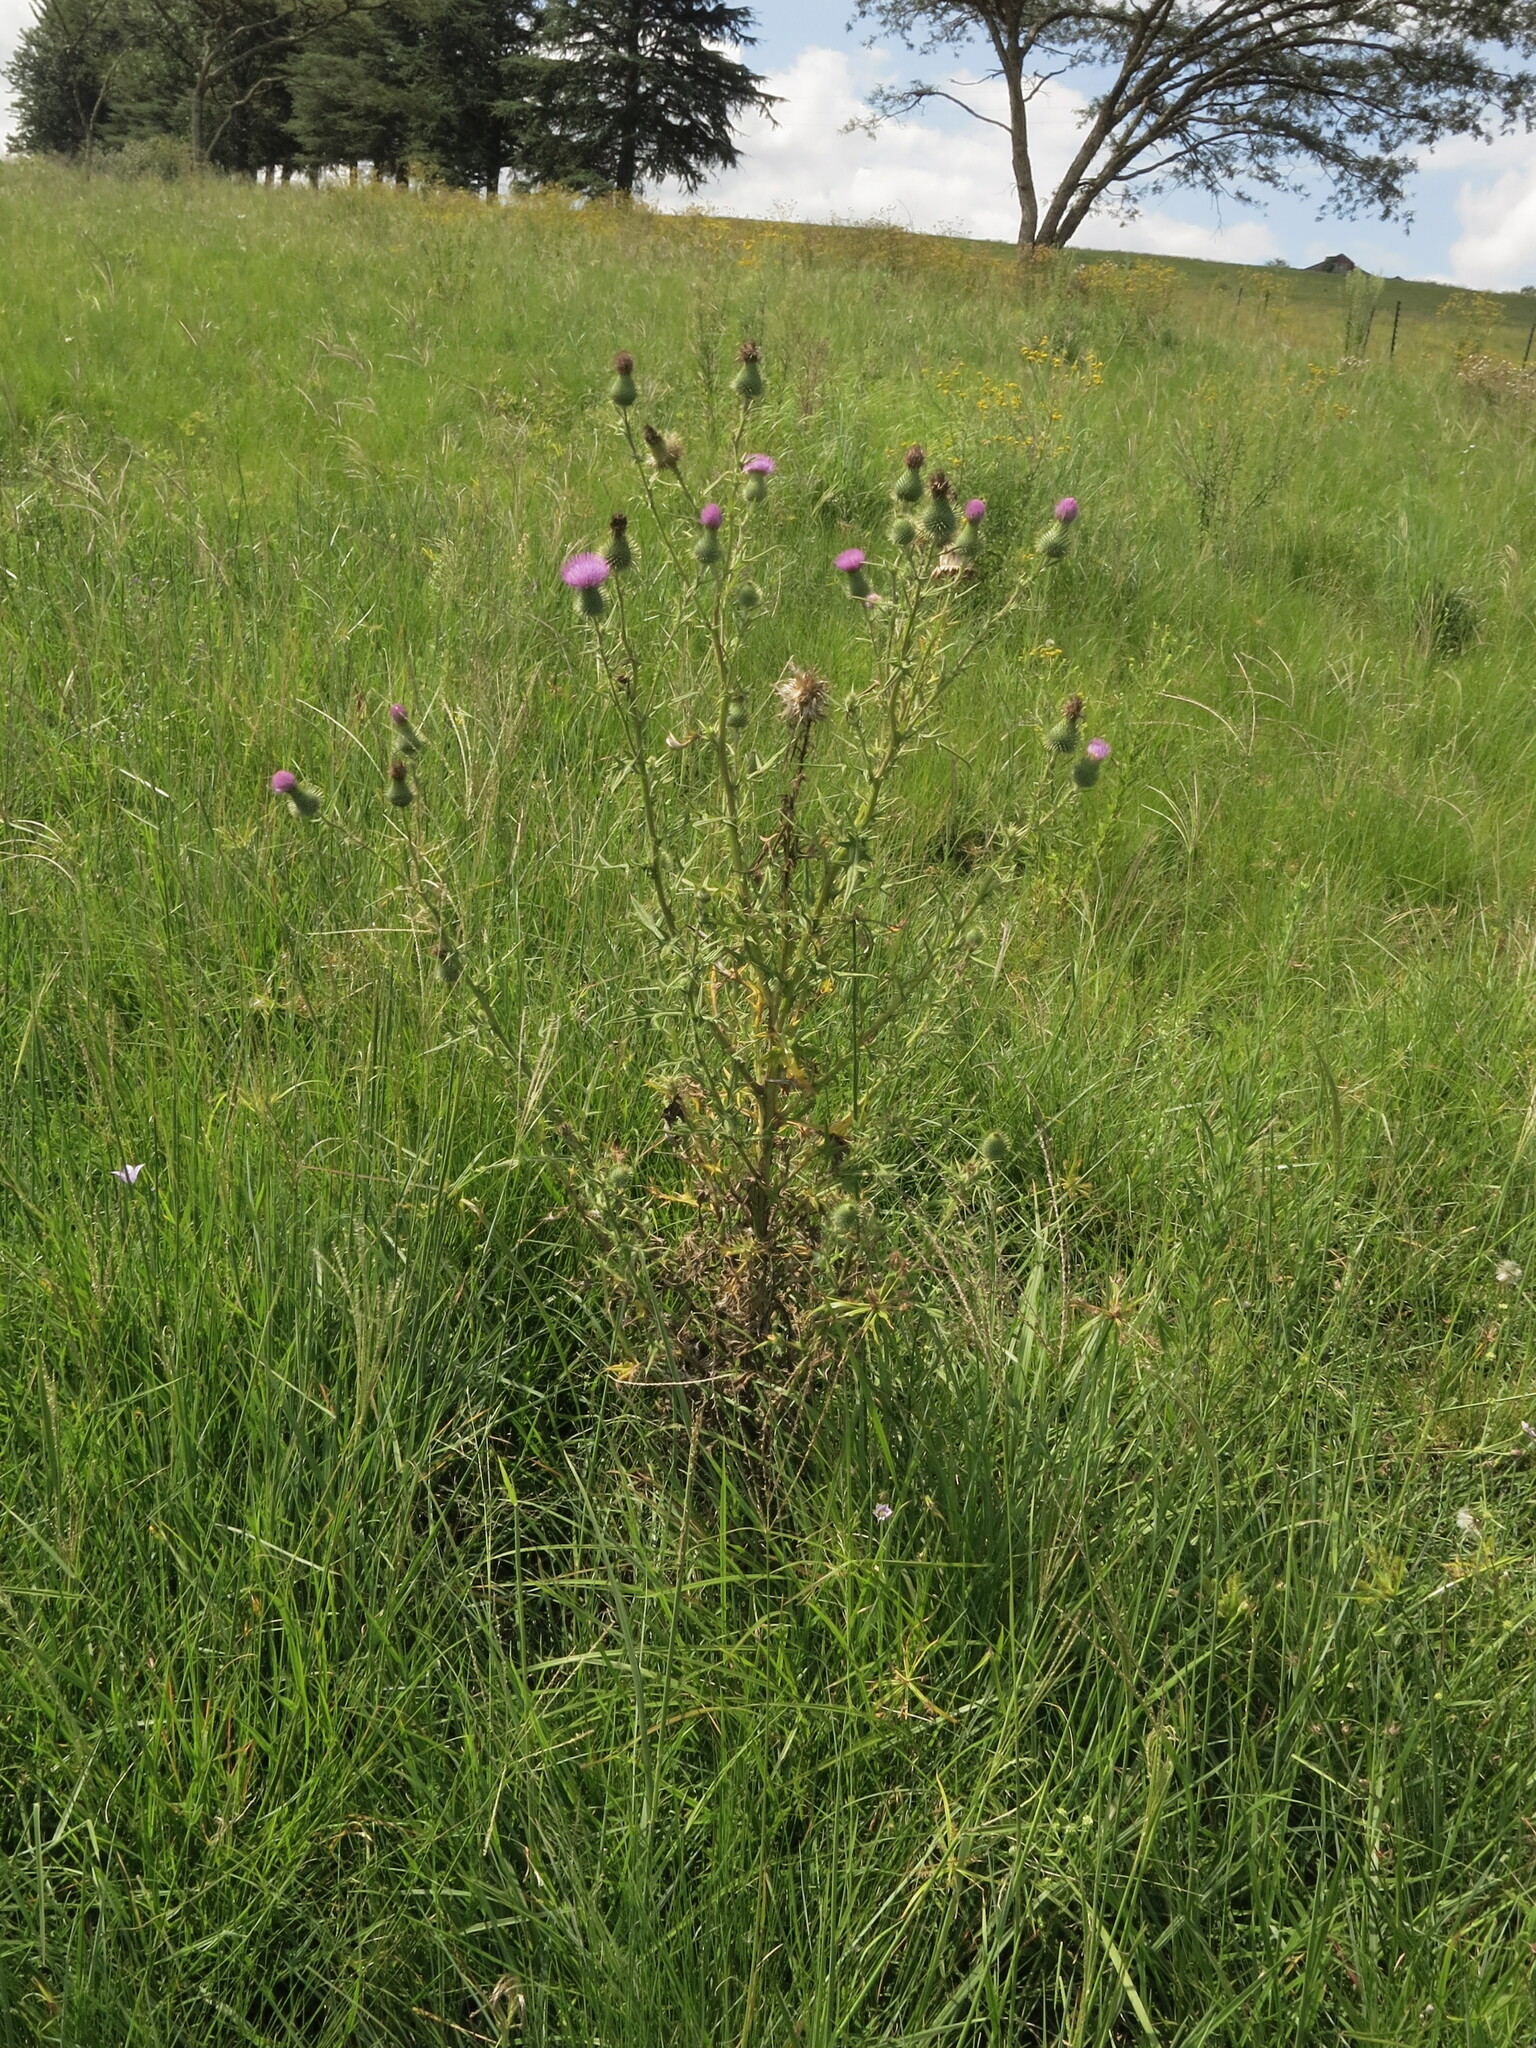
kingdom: Plantae
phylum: Tracheophyta
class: Magnoliopsida
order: Asterales
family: Asteraceae
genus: Cirsium
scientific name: Cirsium vulgare
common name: Bull thistle
